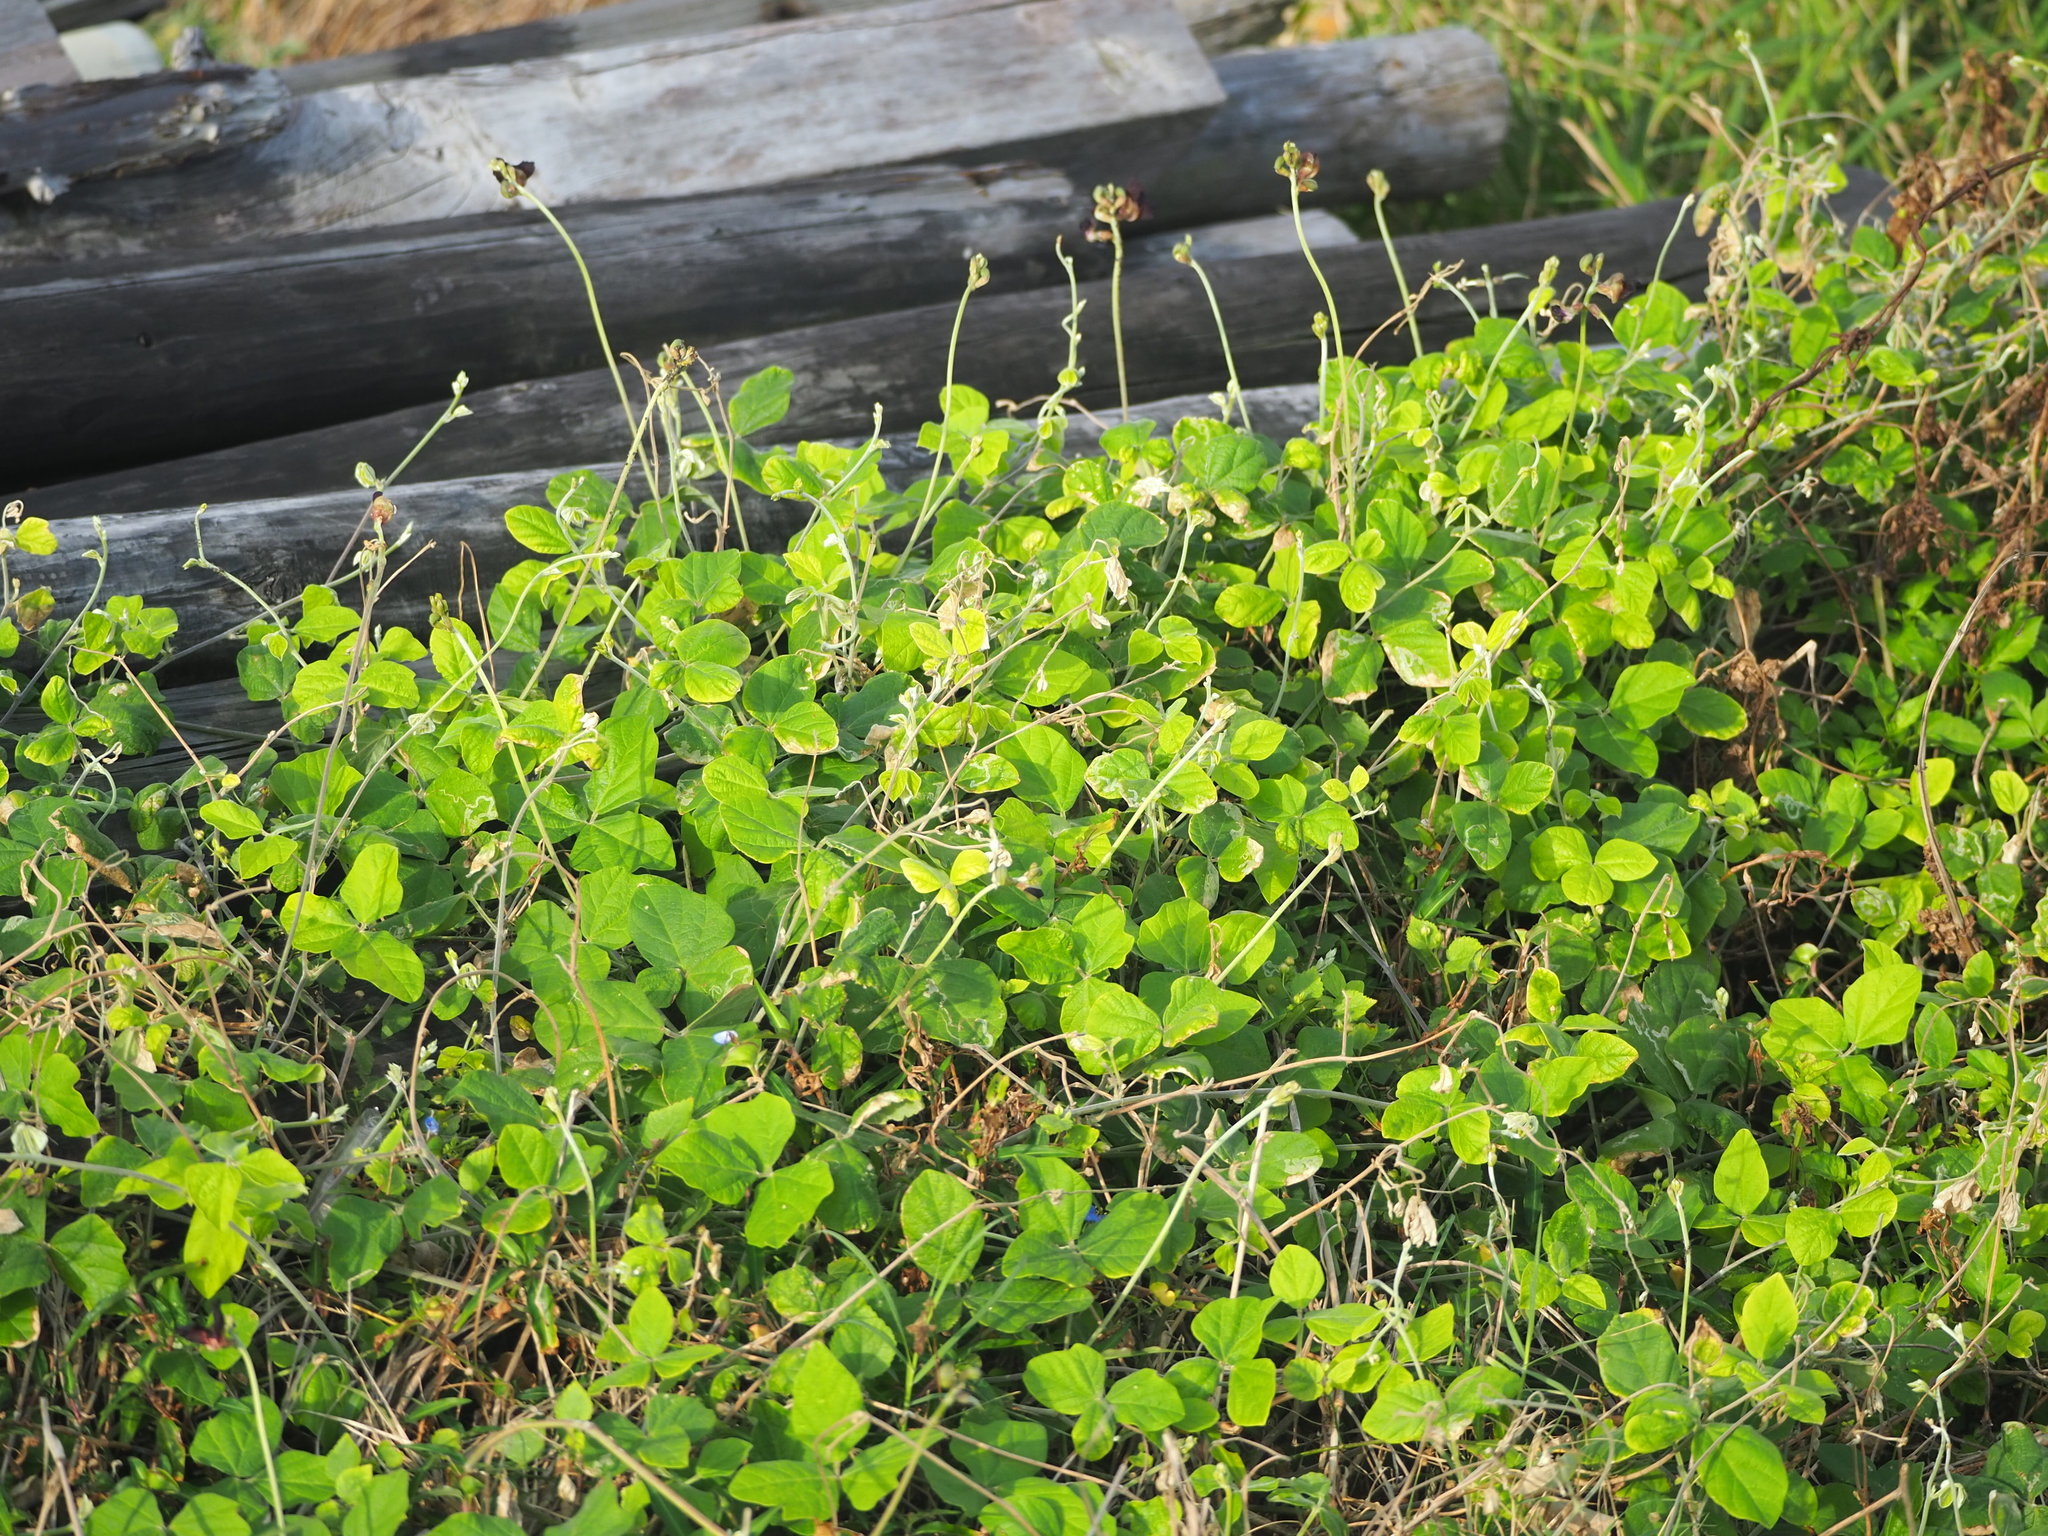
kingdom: Plantae
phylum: Tracheophyta
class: Magnoliopsida
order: Fabales
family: Fabaceae
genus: Macroptilium
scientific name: Macroptilium atropurpureum
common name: Purple bushbean
